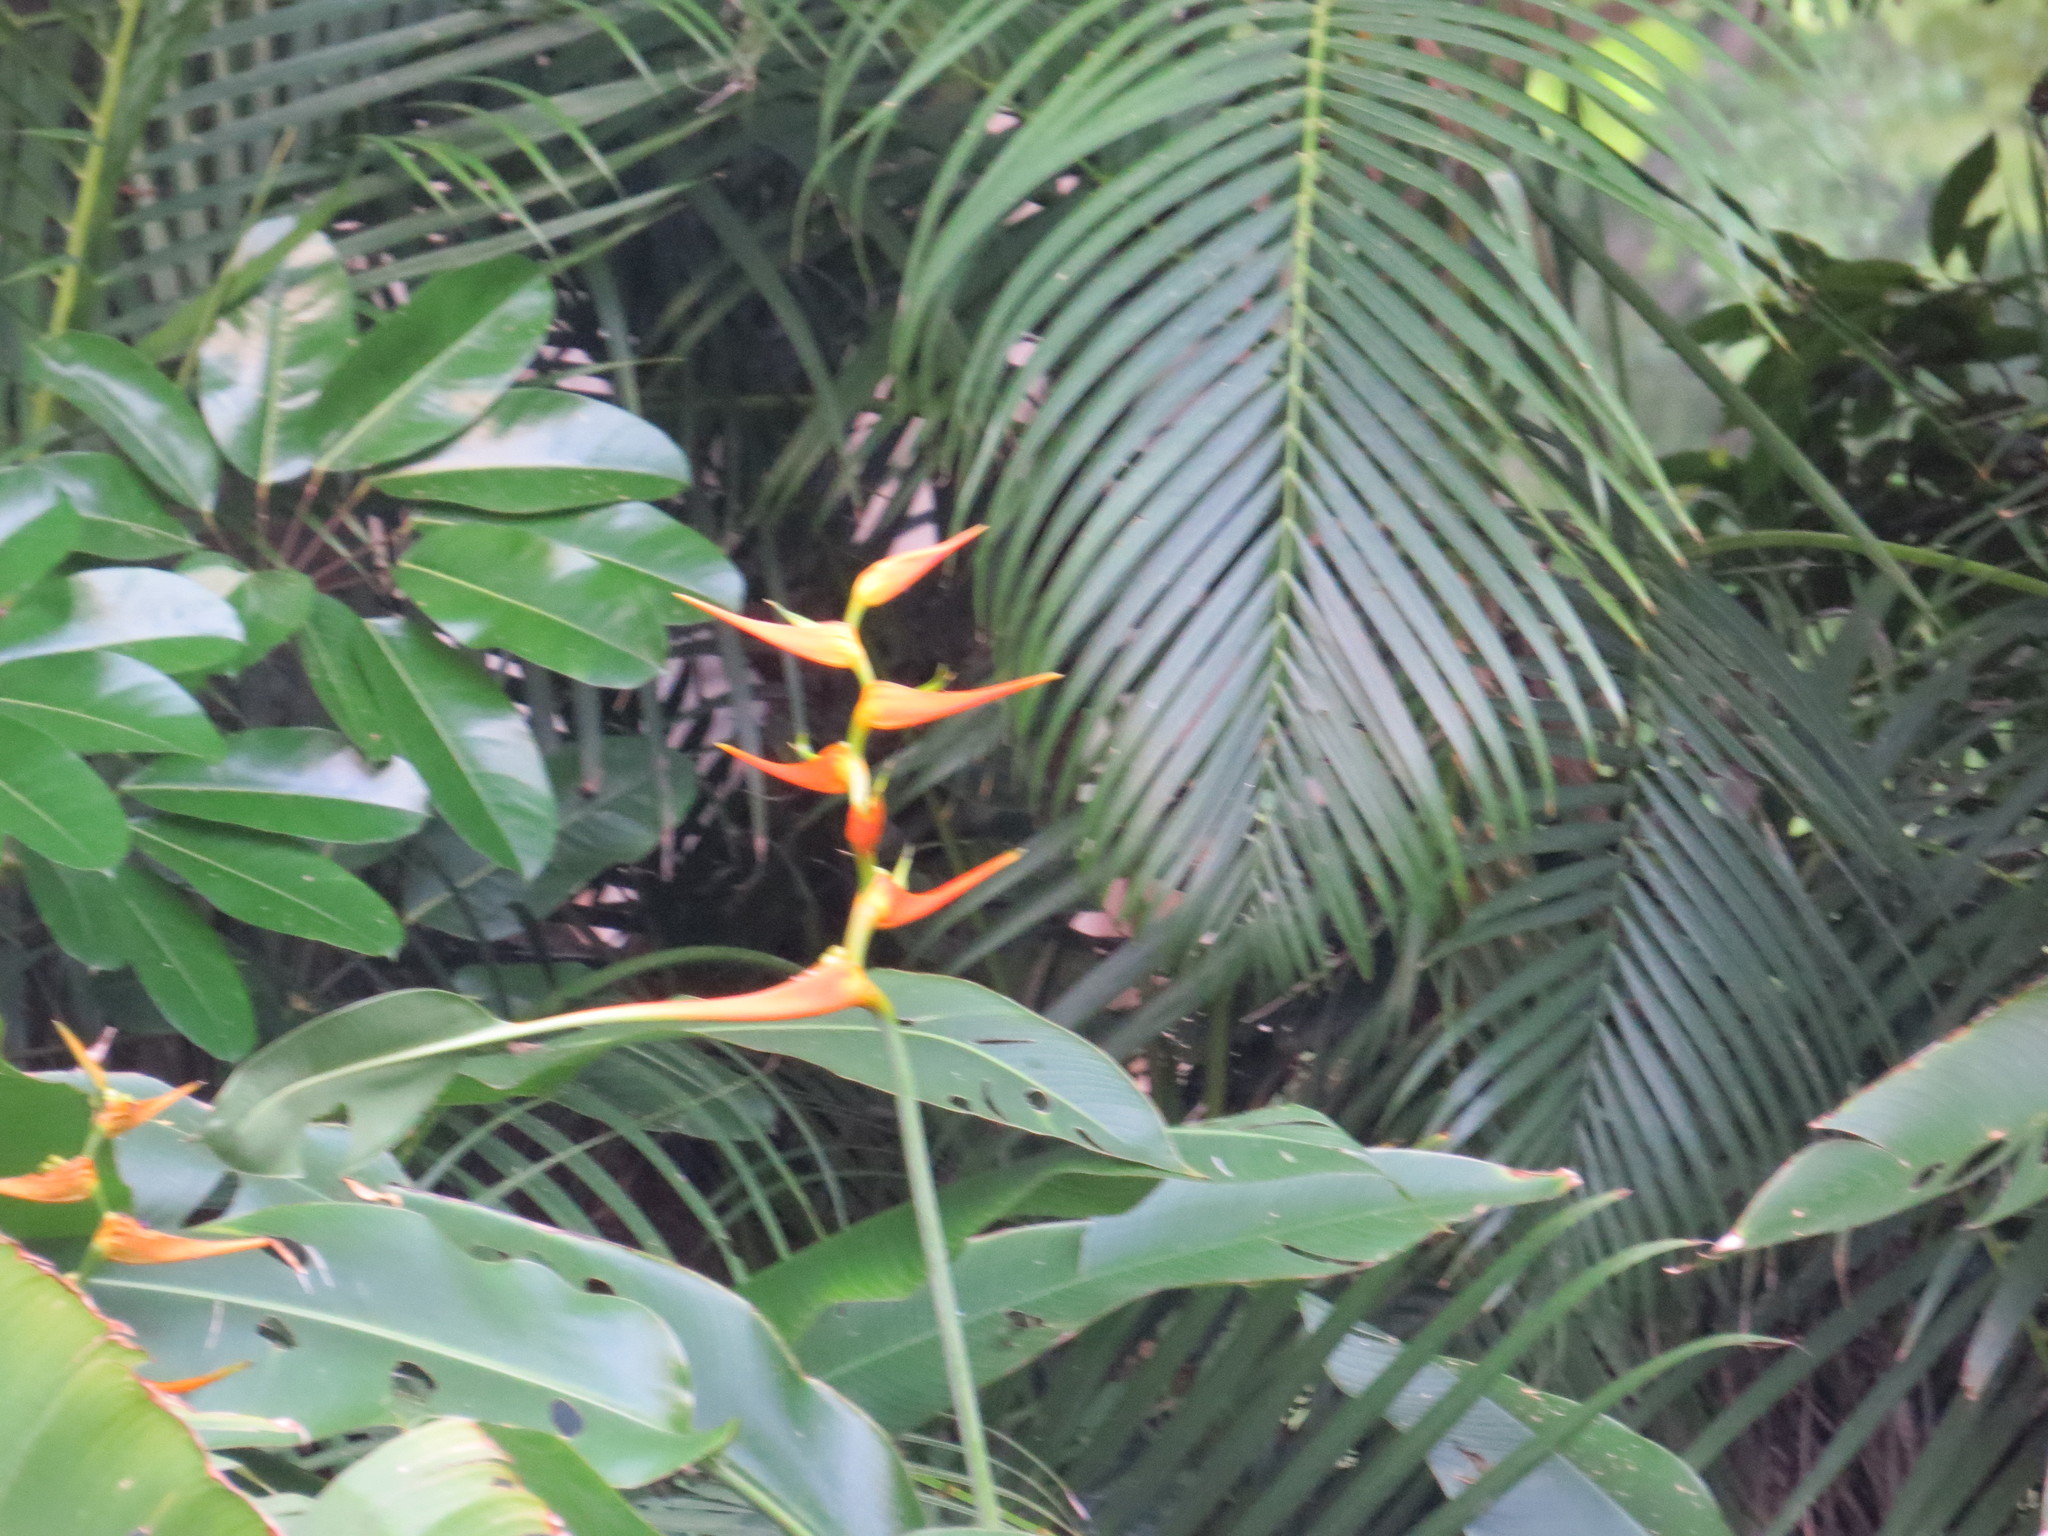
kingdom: Plantae
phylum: Tracheophyta
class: Liliopsida
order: Zingiberales
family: Heliconiaceae
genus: Heliconia
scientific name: Heliconia latispatha
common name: Expanded lobsterclaw
